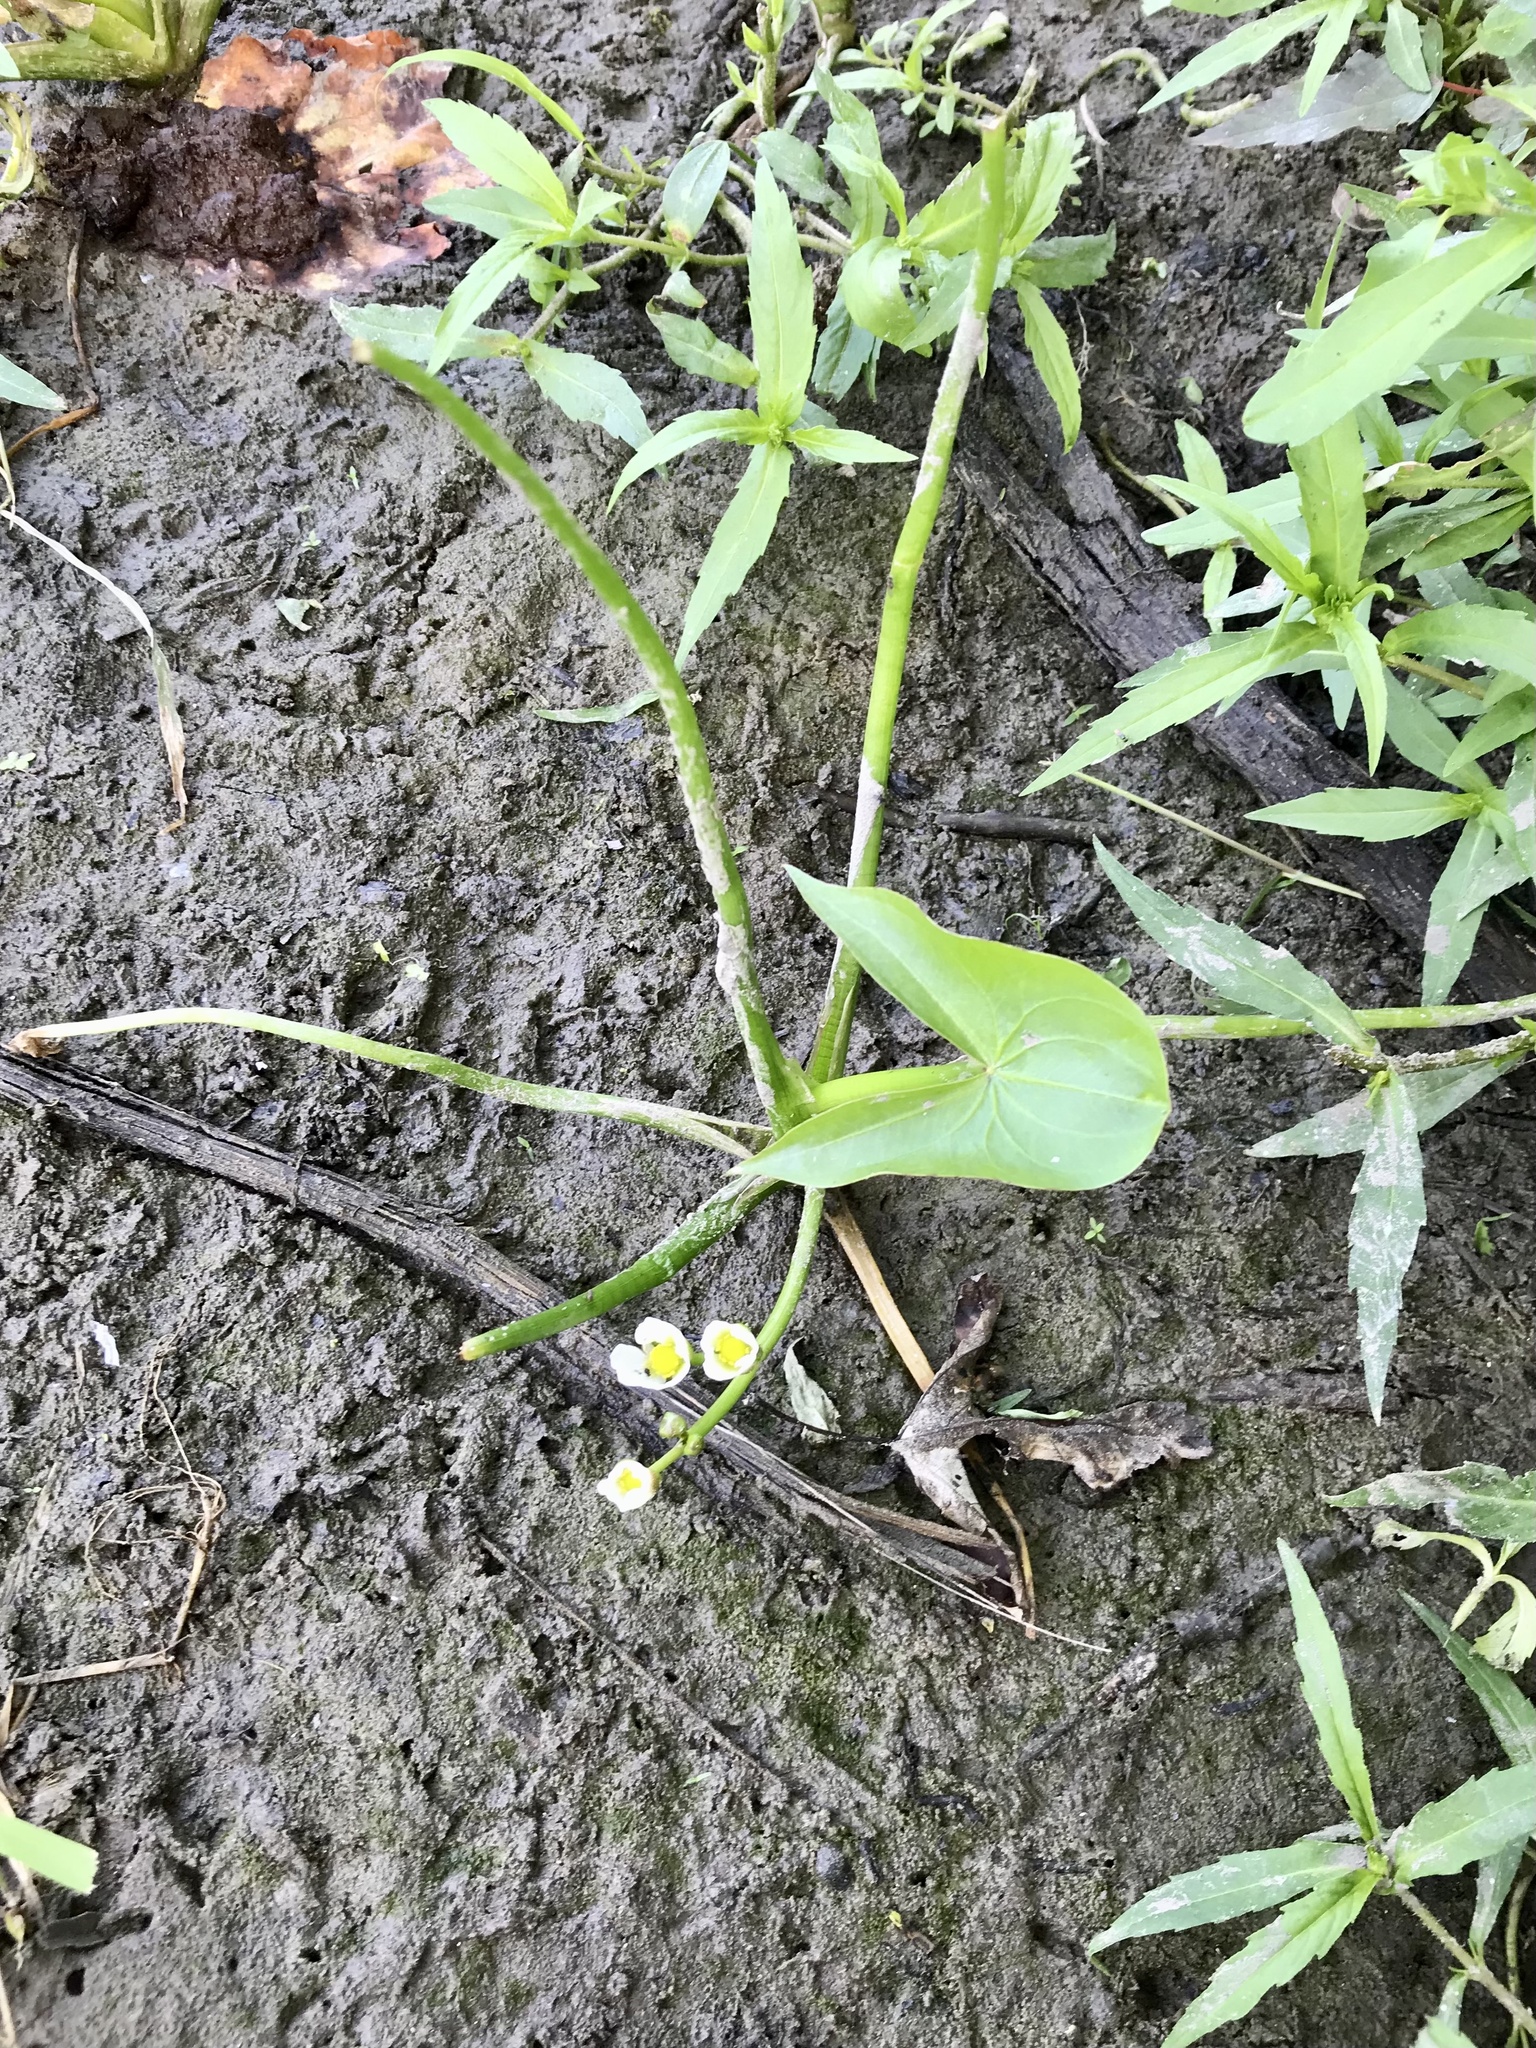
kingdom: Plantae
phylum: Tracheophyta
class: Liliopsida
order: Alismatales
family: Alismataceae
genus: Sagittaria
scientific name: Sagittaria calycina
